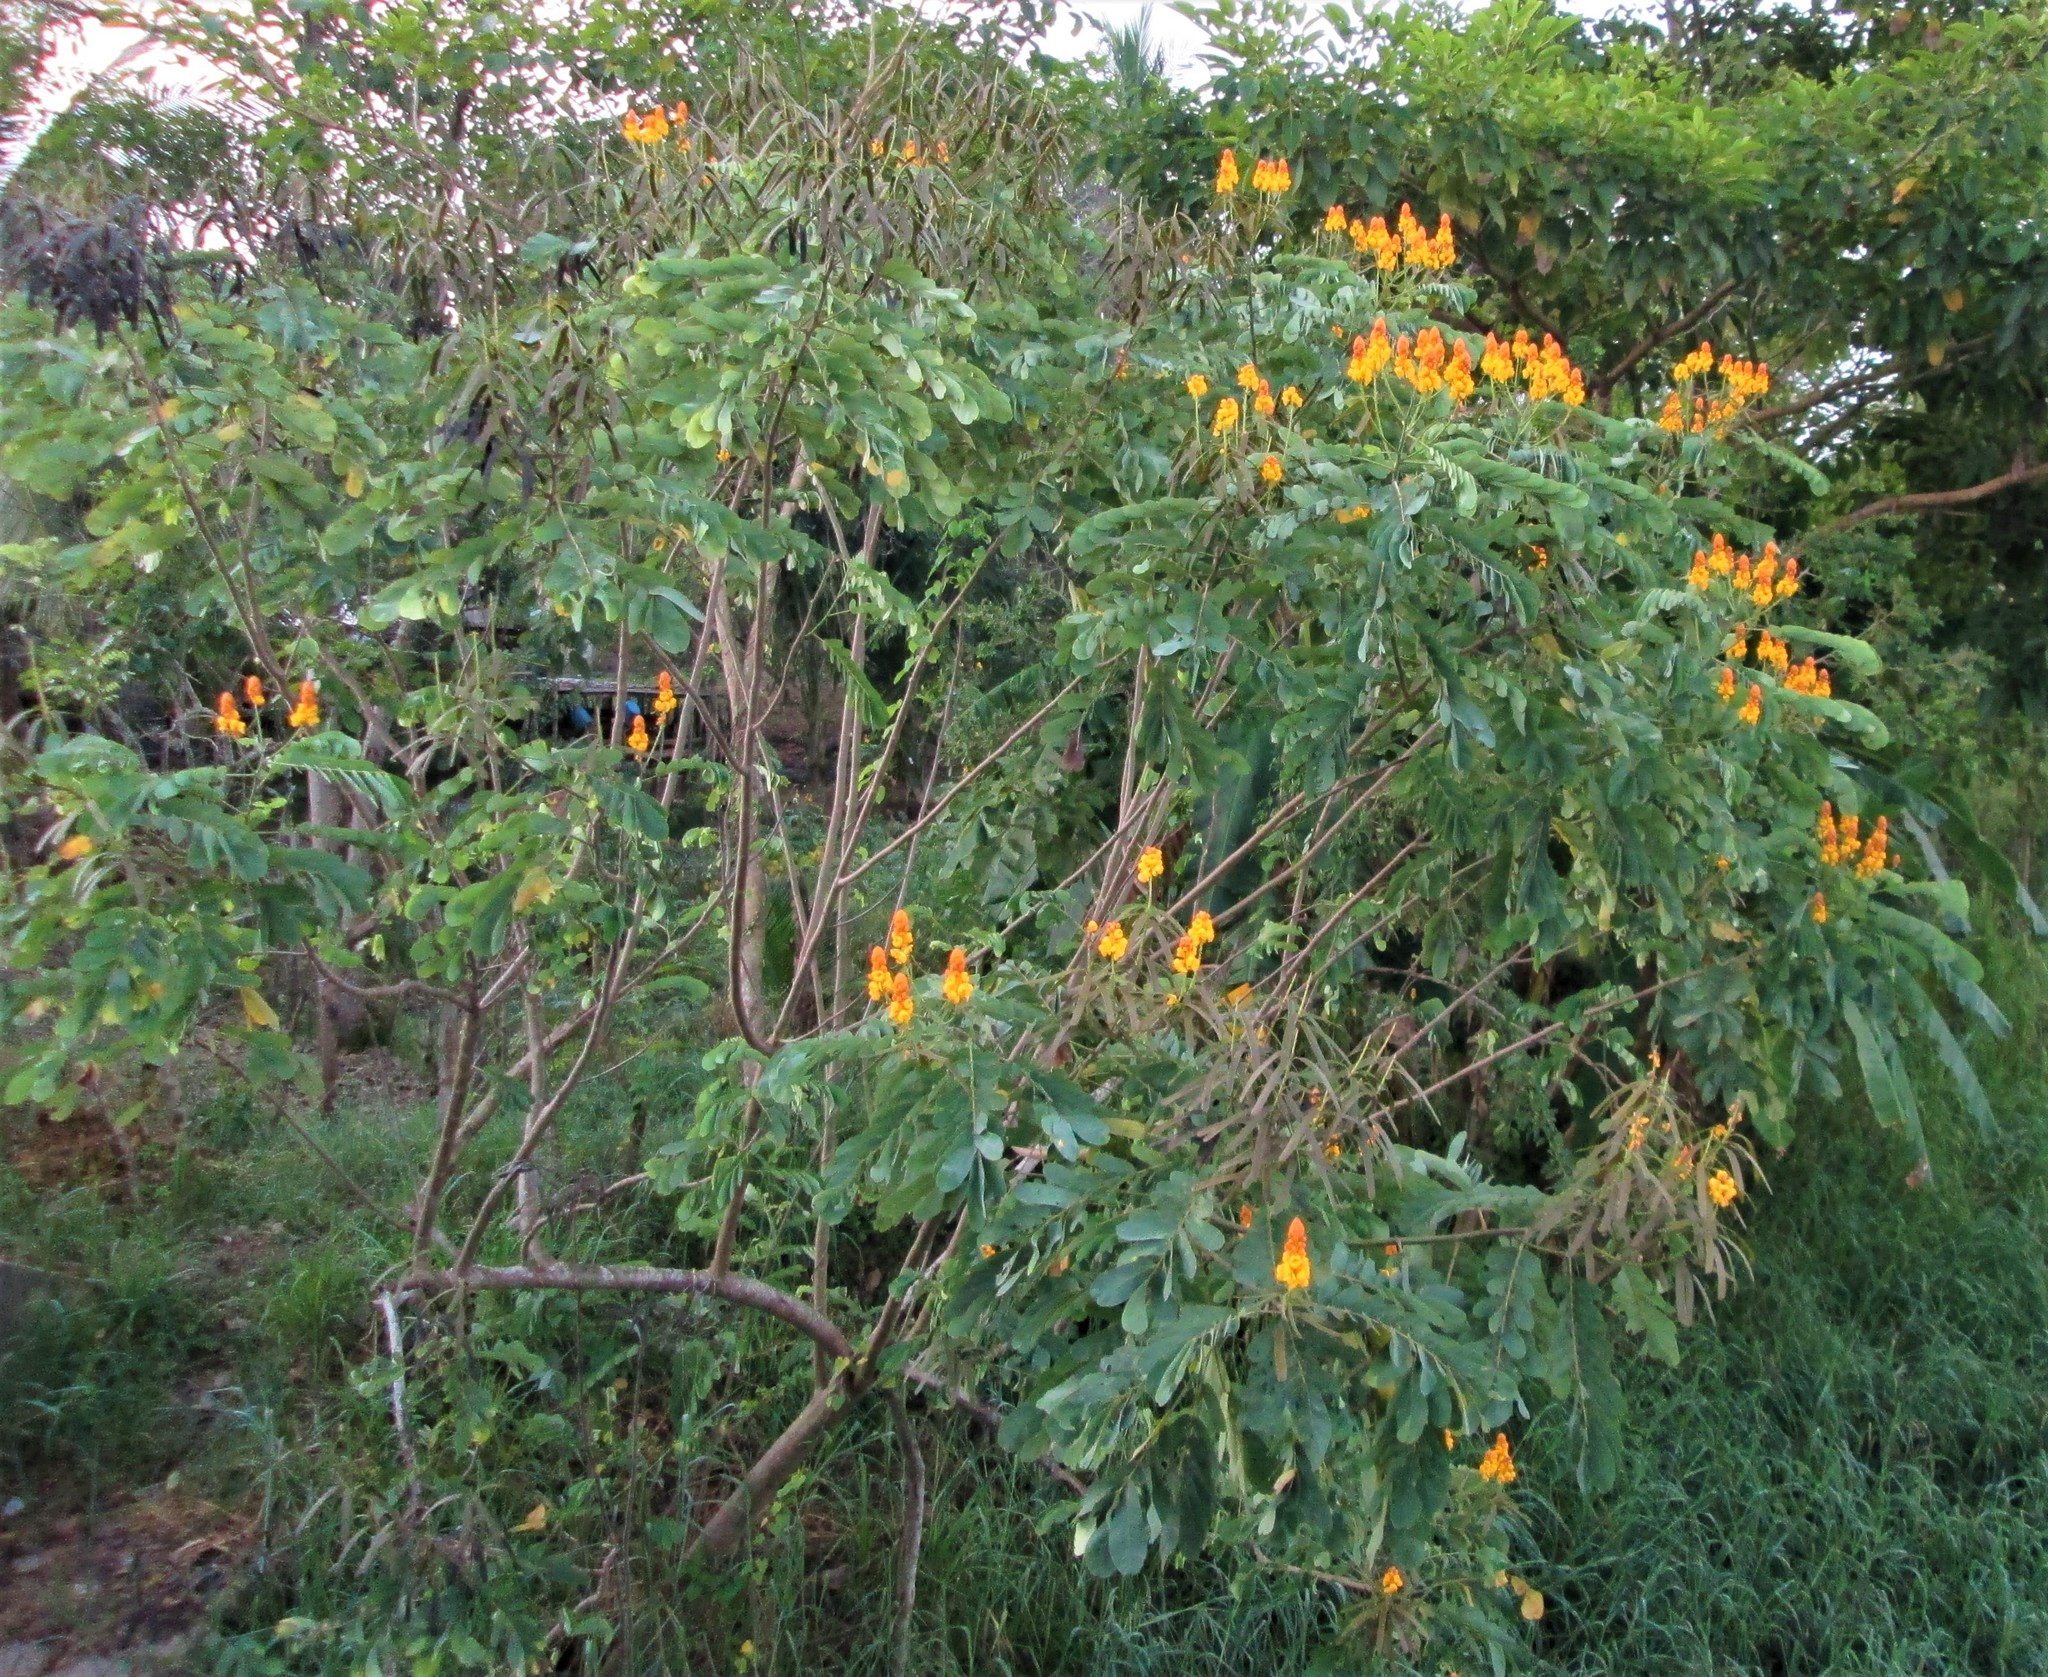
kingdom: Plantae
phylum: Tracheophyta
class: Magnoliopsida
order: Fabales
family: Fabaceae
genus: Senna
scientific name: Senna reticulata
